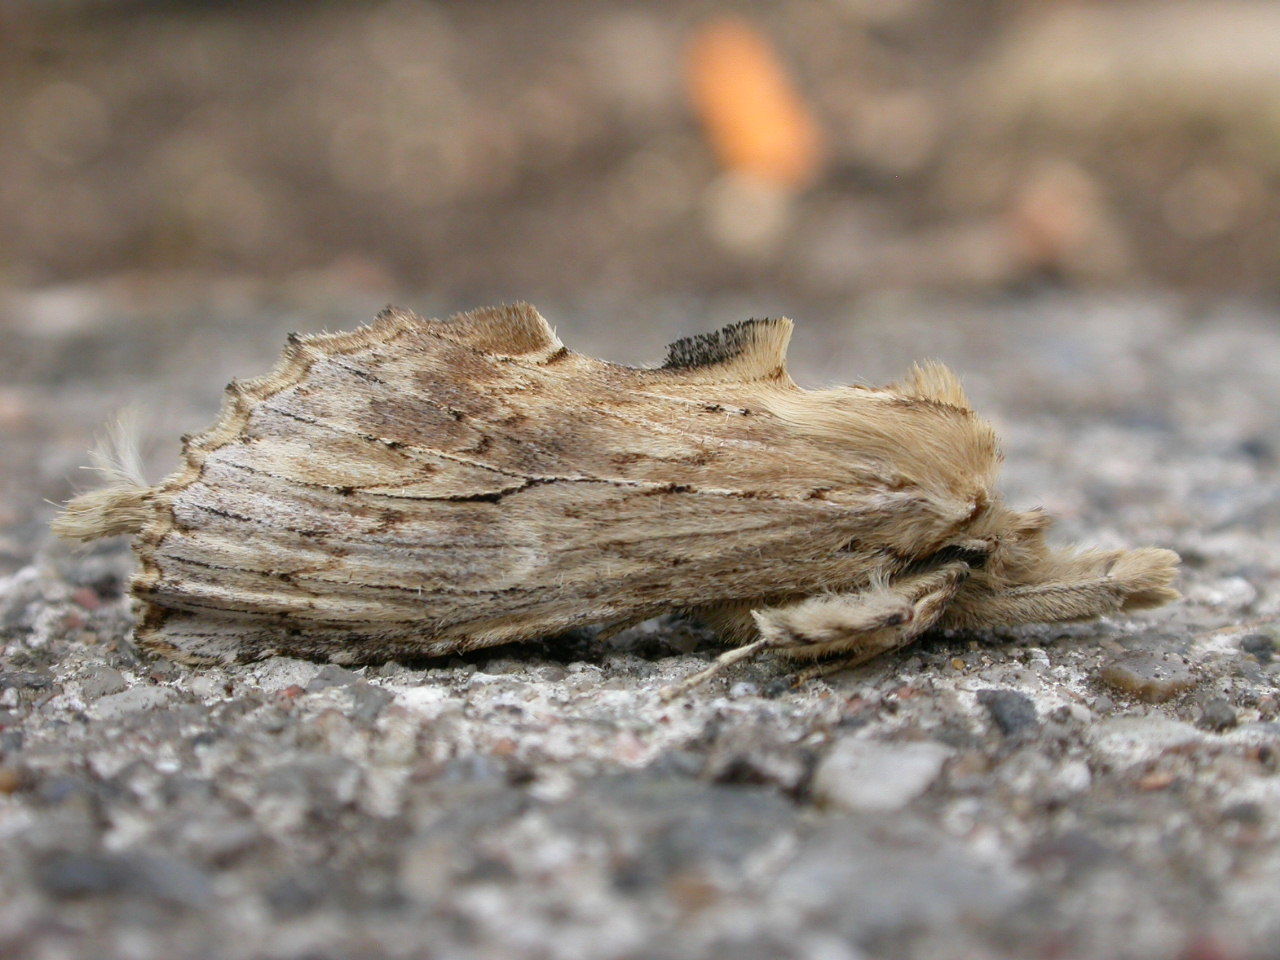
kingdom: Animalia
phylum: Arthropoda
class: Insecta
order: Lepidoptera
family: Notodontidae
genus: Pterostoma
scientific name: Pterostoma palpina
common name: Pale prominent
